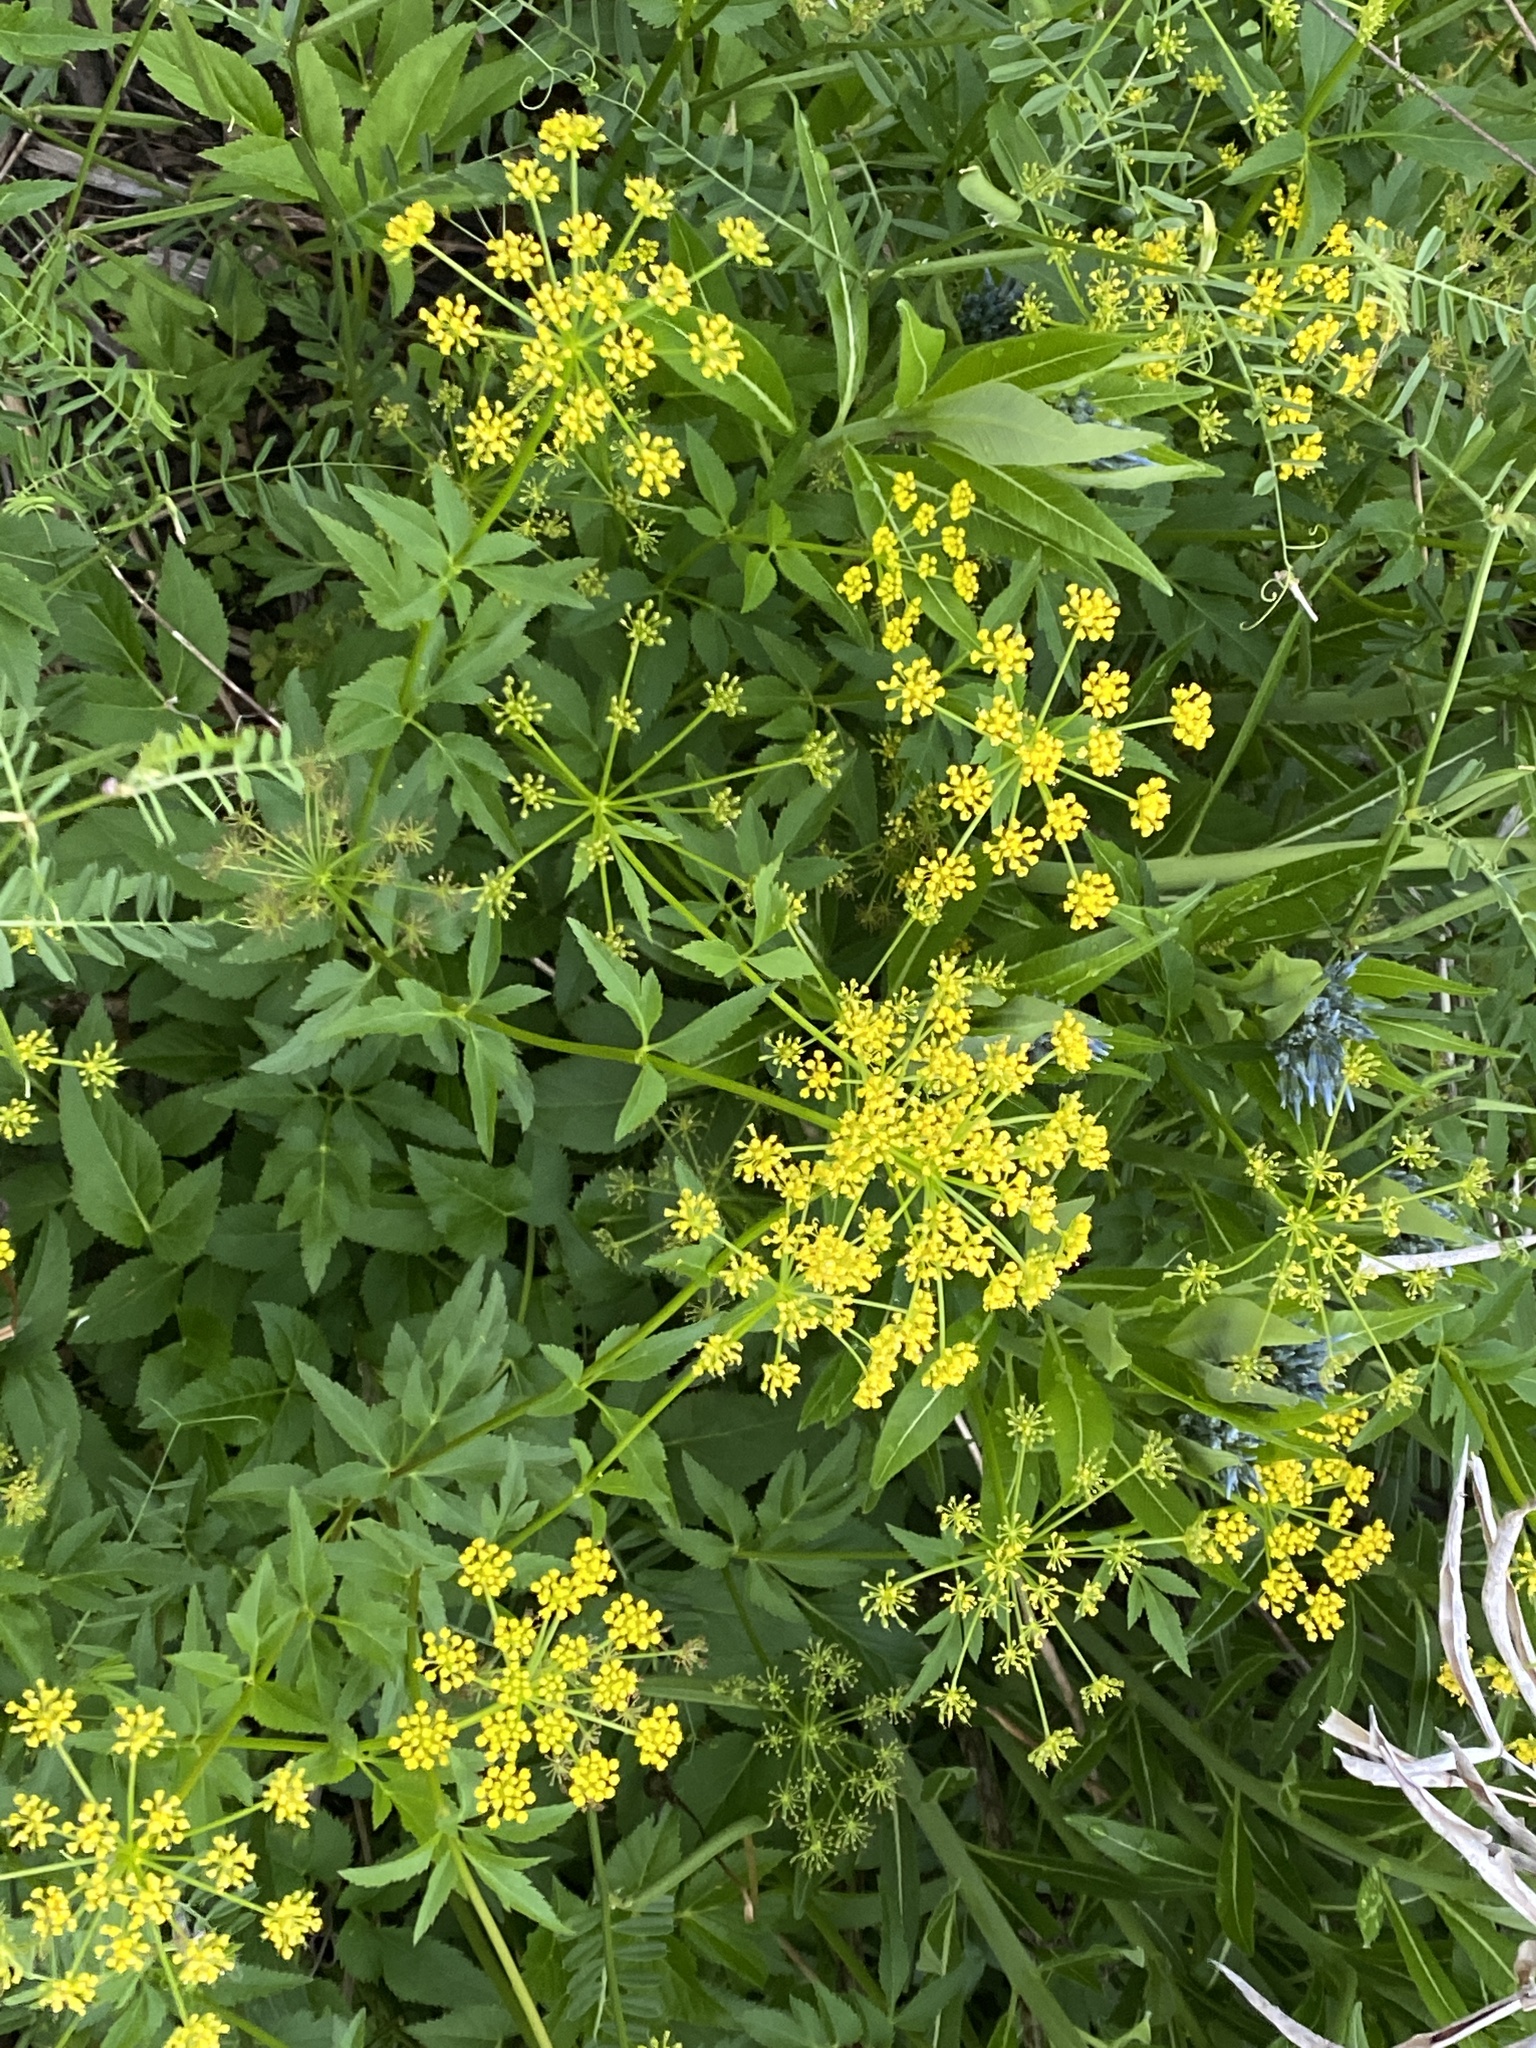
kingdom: Plantae
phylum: Tracheophyta
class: Magnoliopsida
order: Apiales
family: Apiaceae
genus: Zizia
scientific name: Zizia aurea
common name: Golden alexanders
